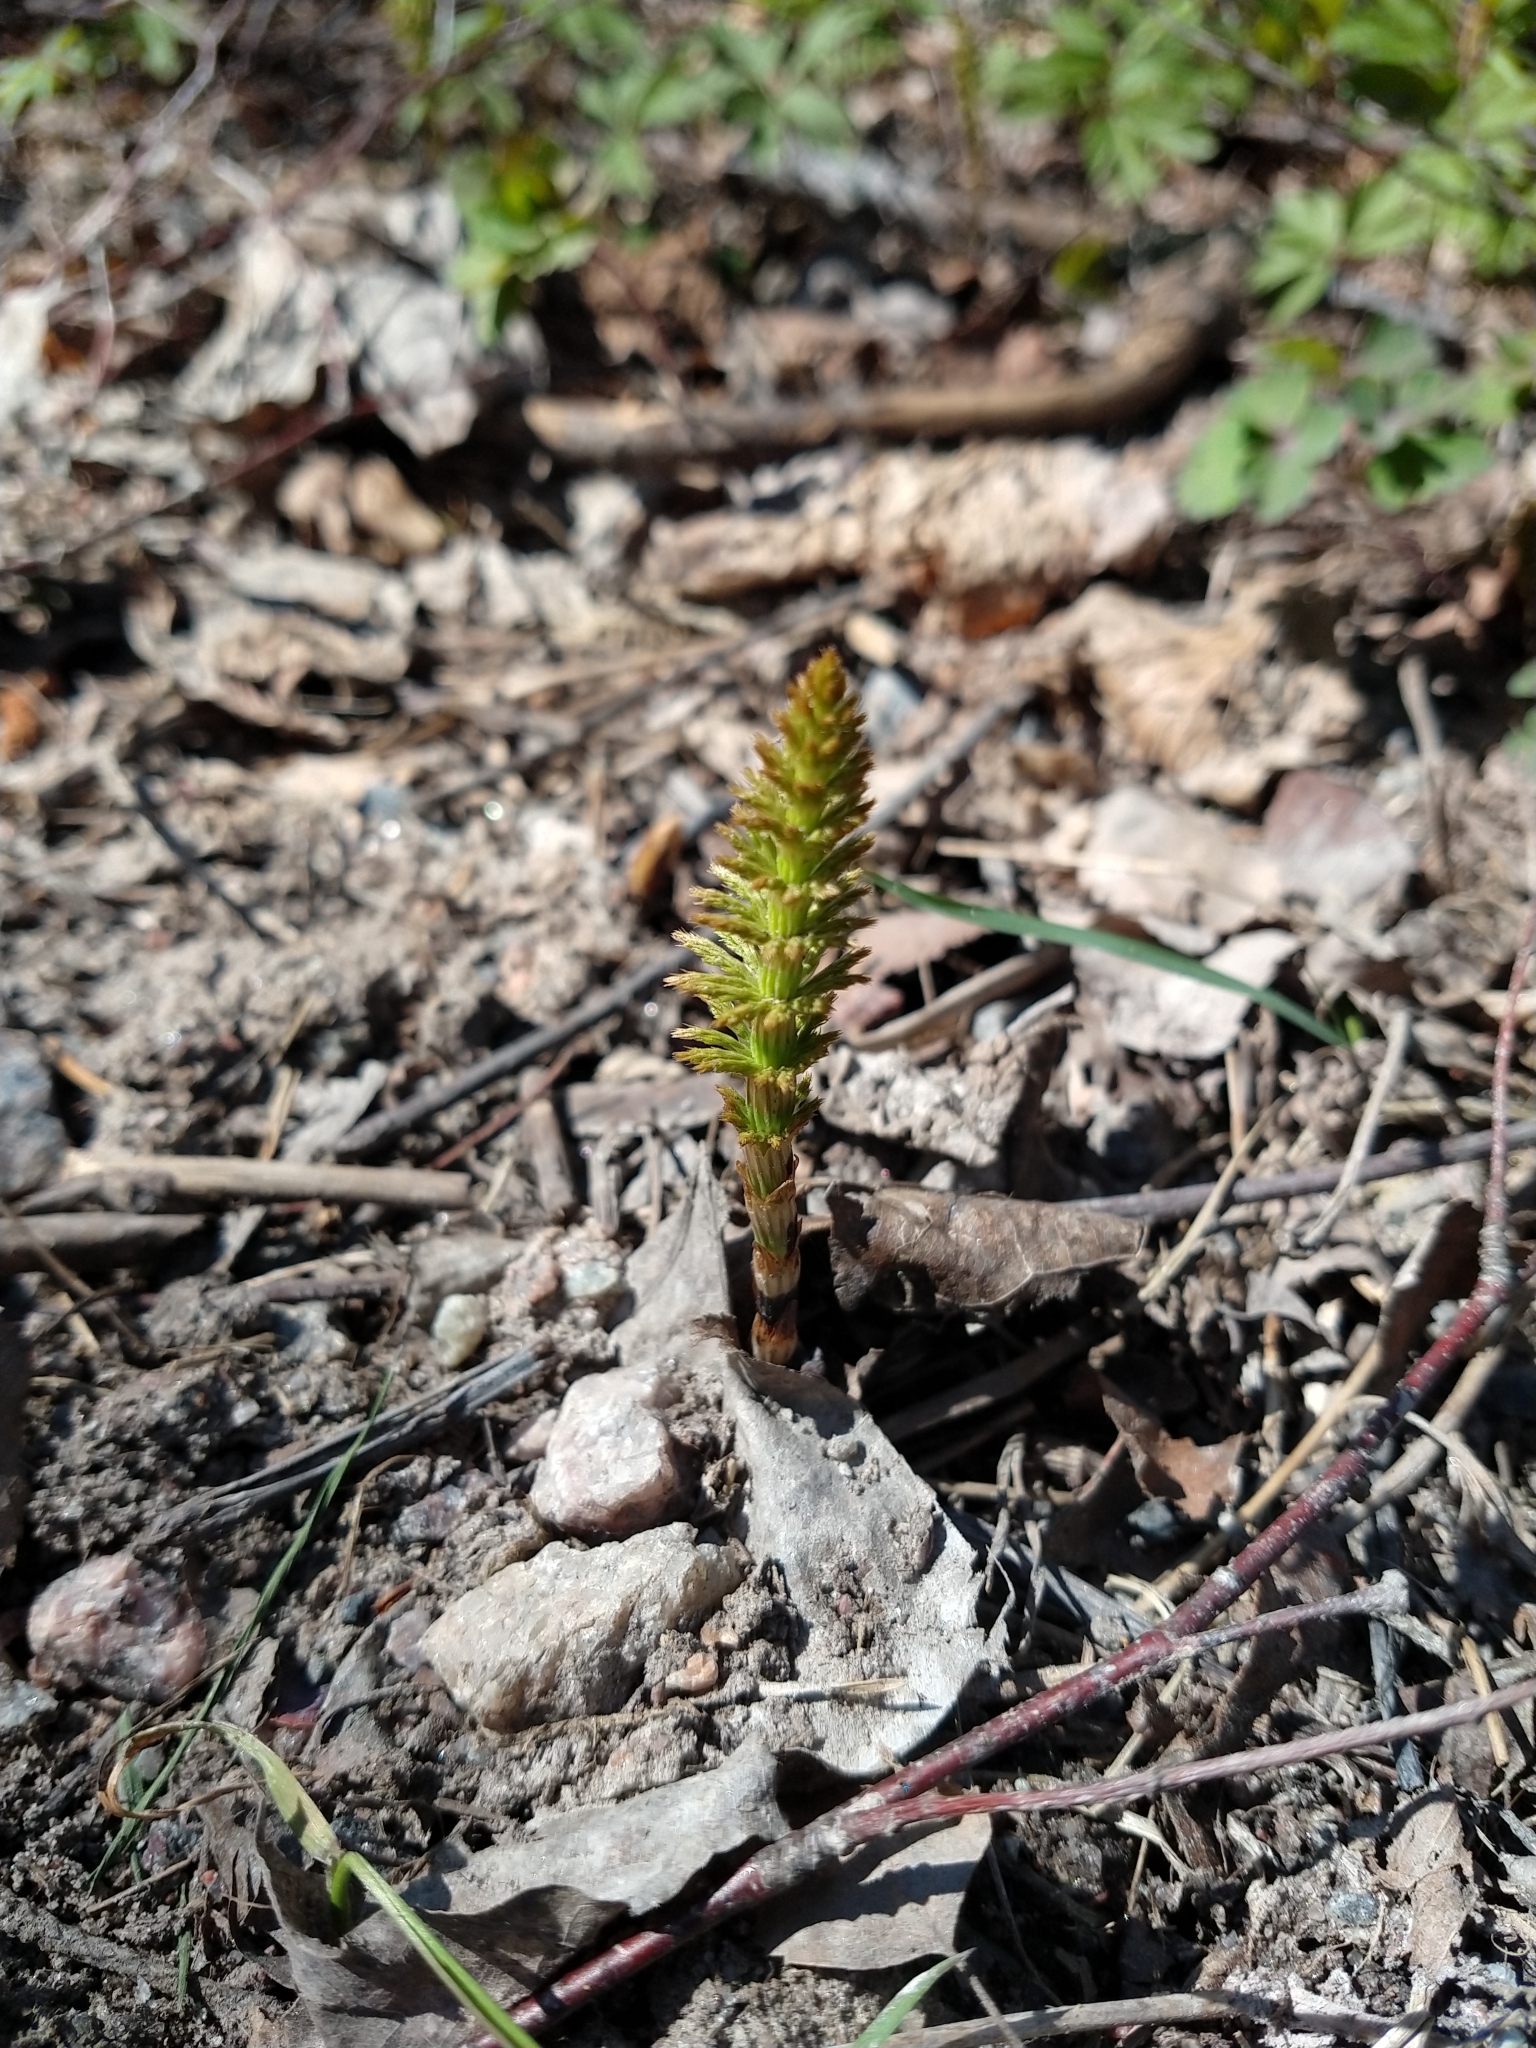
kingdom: Plantae
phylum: Tracheophyta
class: Polypodiopsida
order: Equisetales
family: Equisetaceae
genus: Equisetum
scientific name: Equisetum sylvaticum
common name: Wood horsetail
